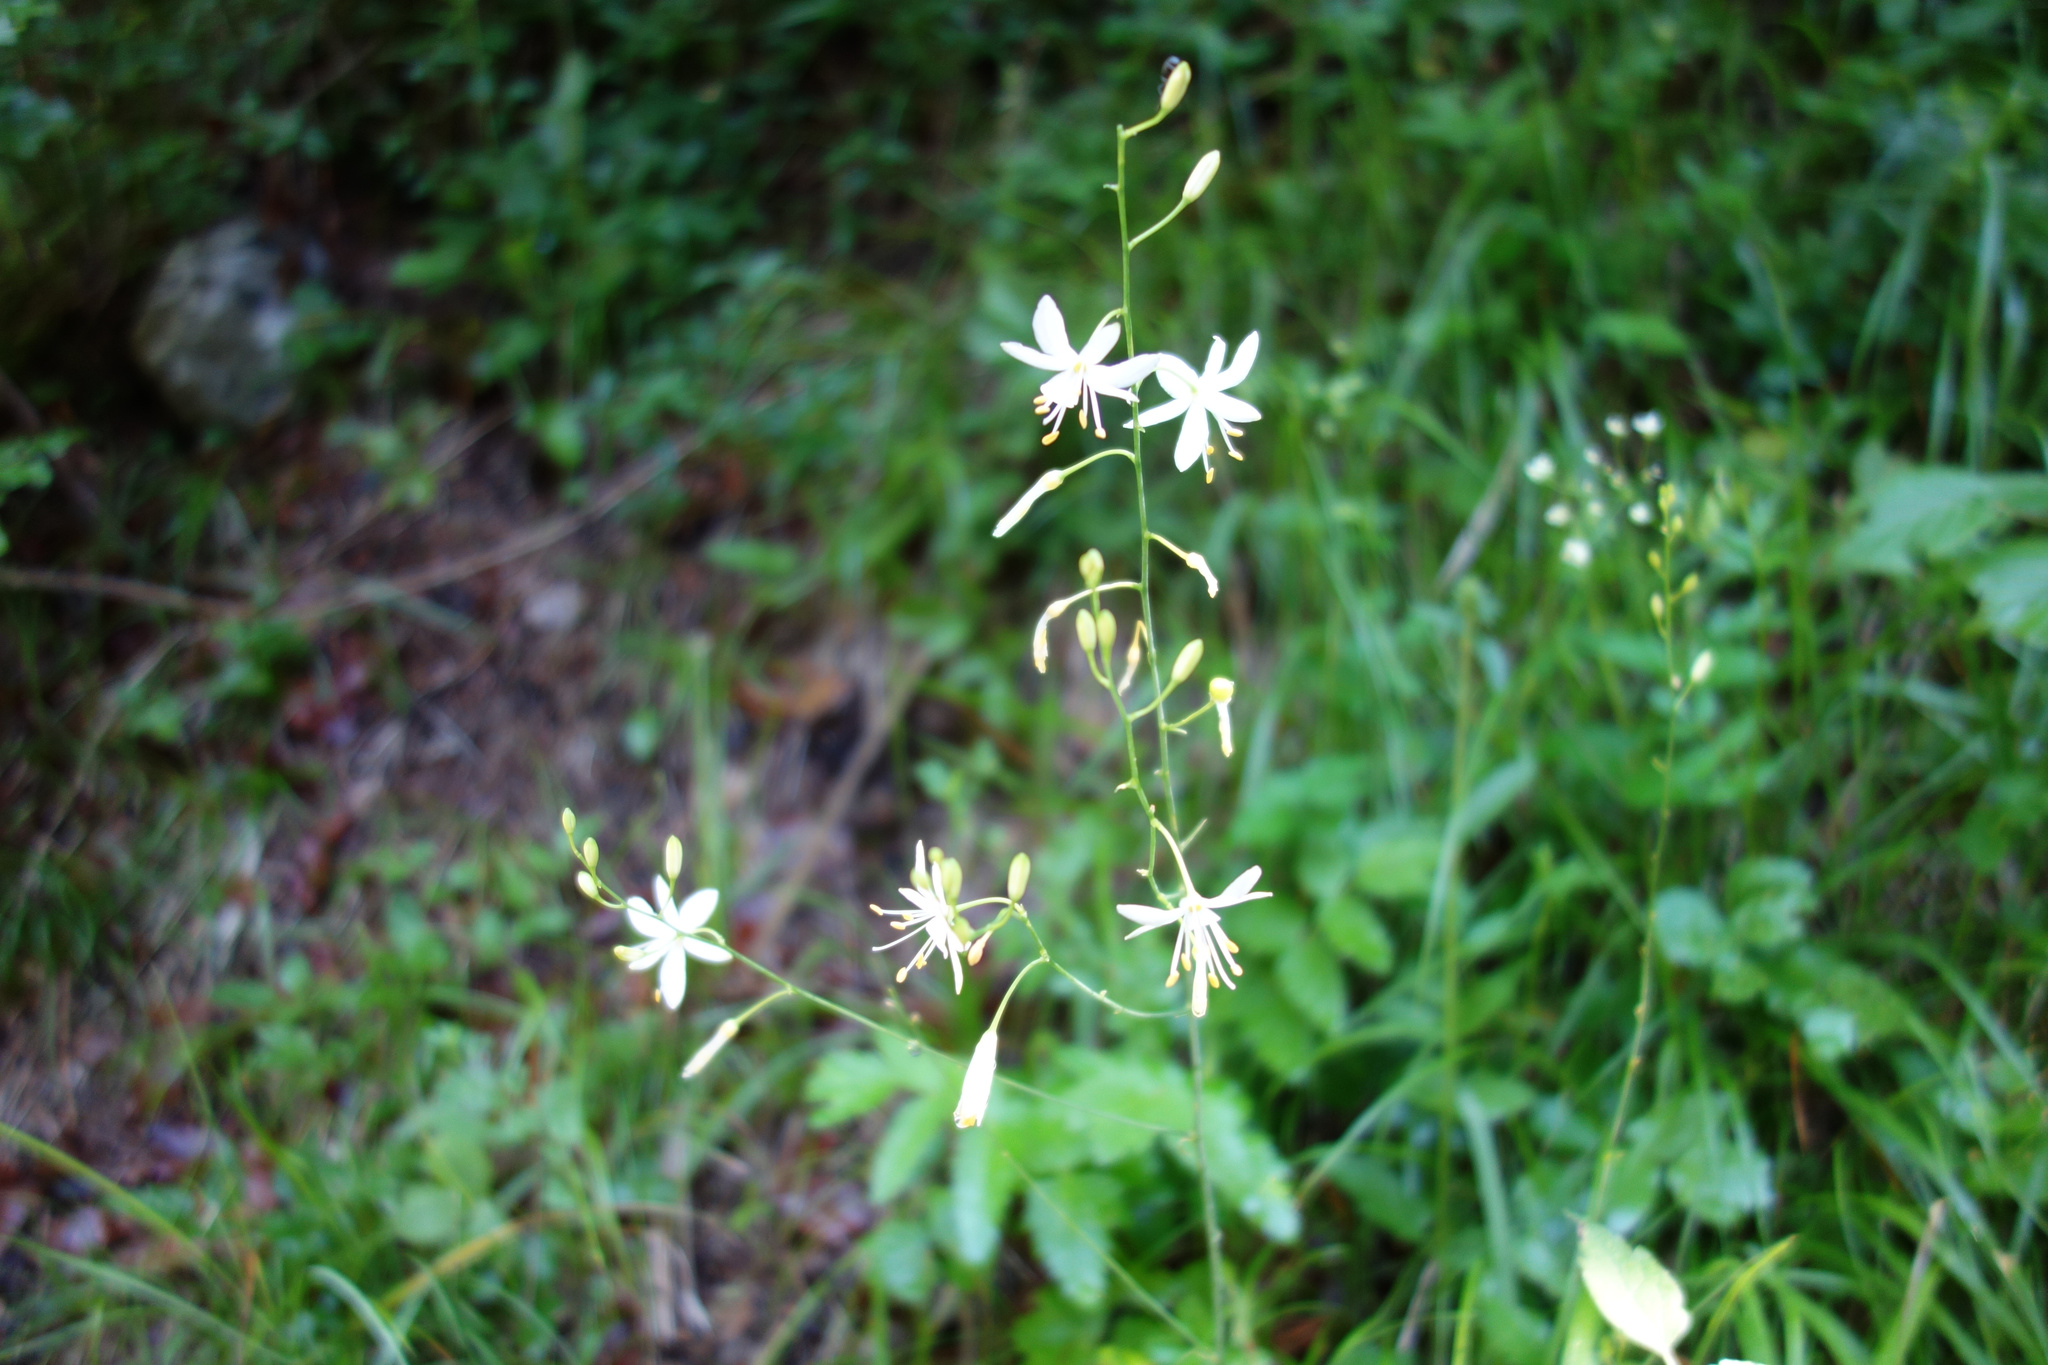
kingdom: Plantae
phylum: Tracheophyta
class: Liliopsida
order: Asparagales
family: Asparagaceae
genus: Anthericum
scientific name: Anthericum ramosum
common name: Branched st. bernard's-lily
